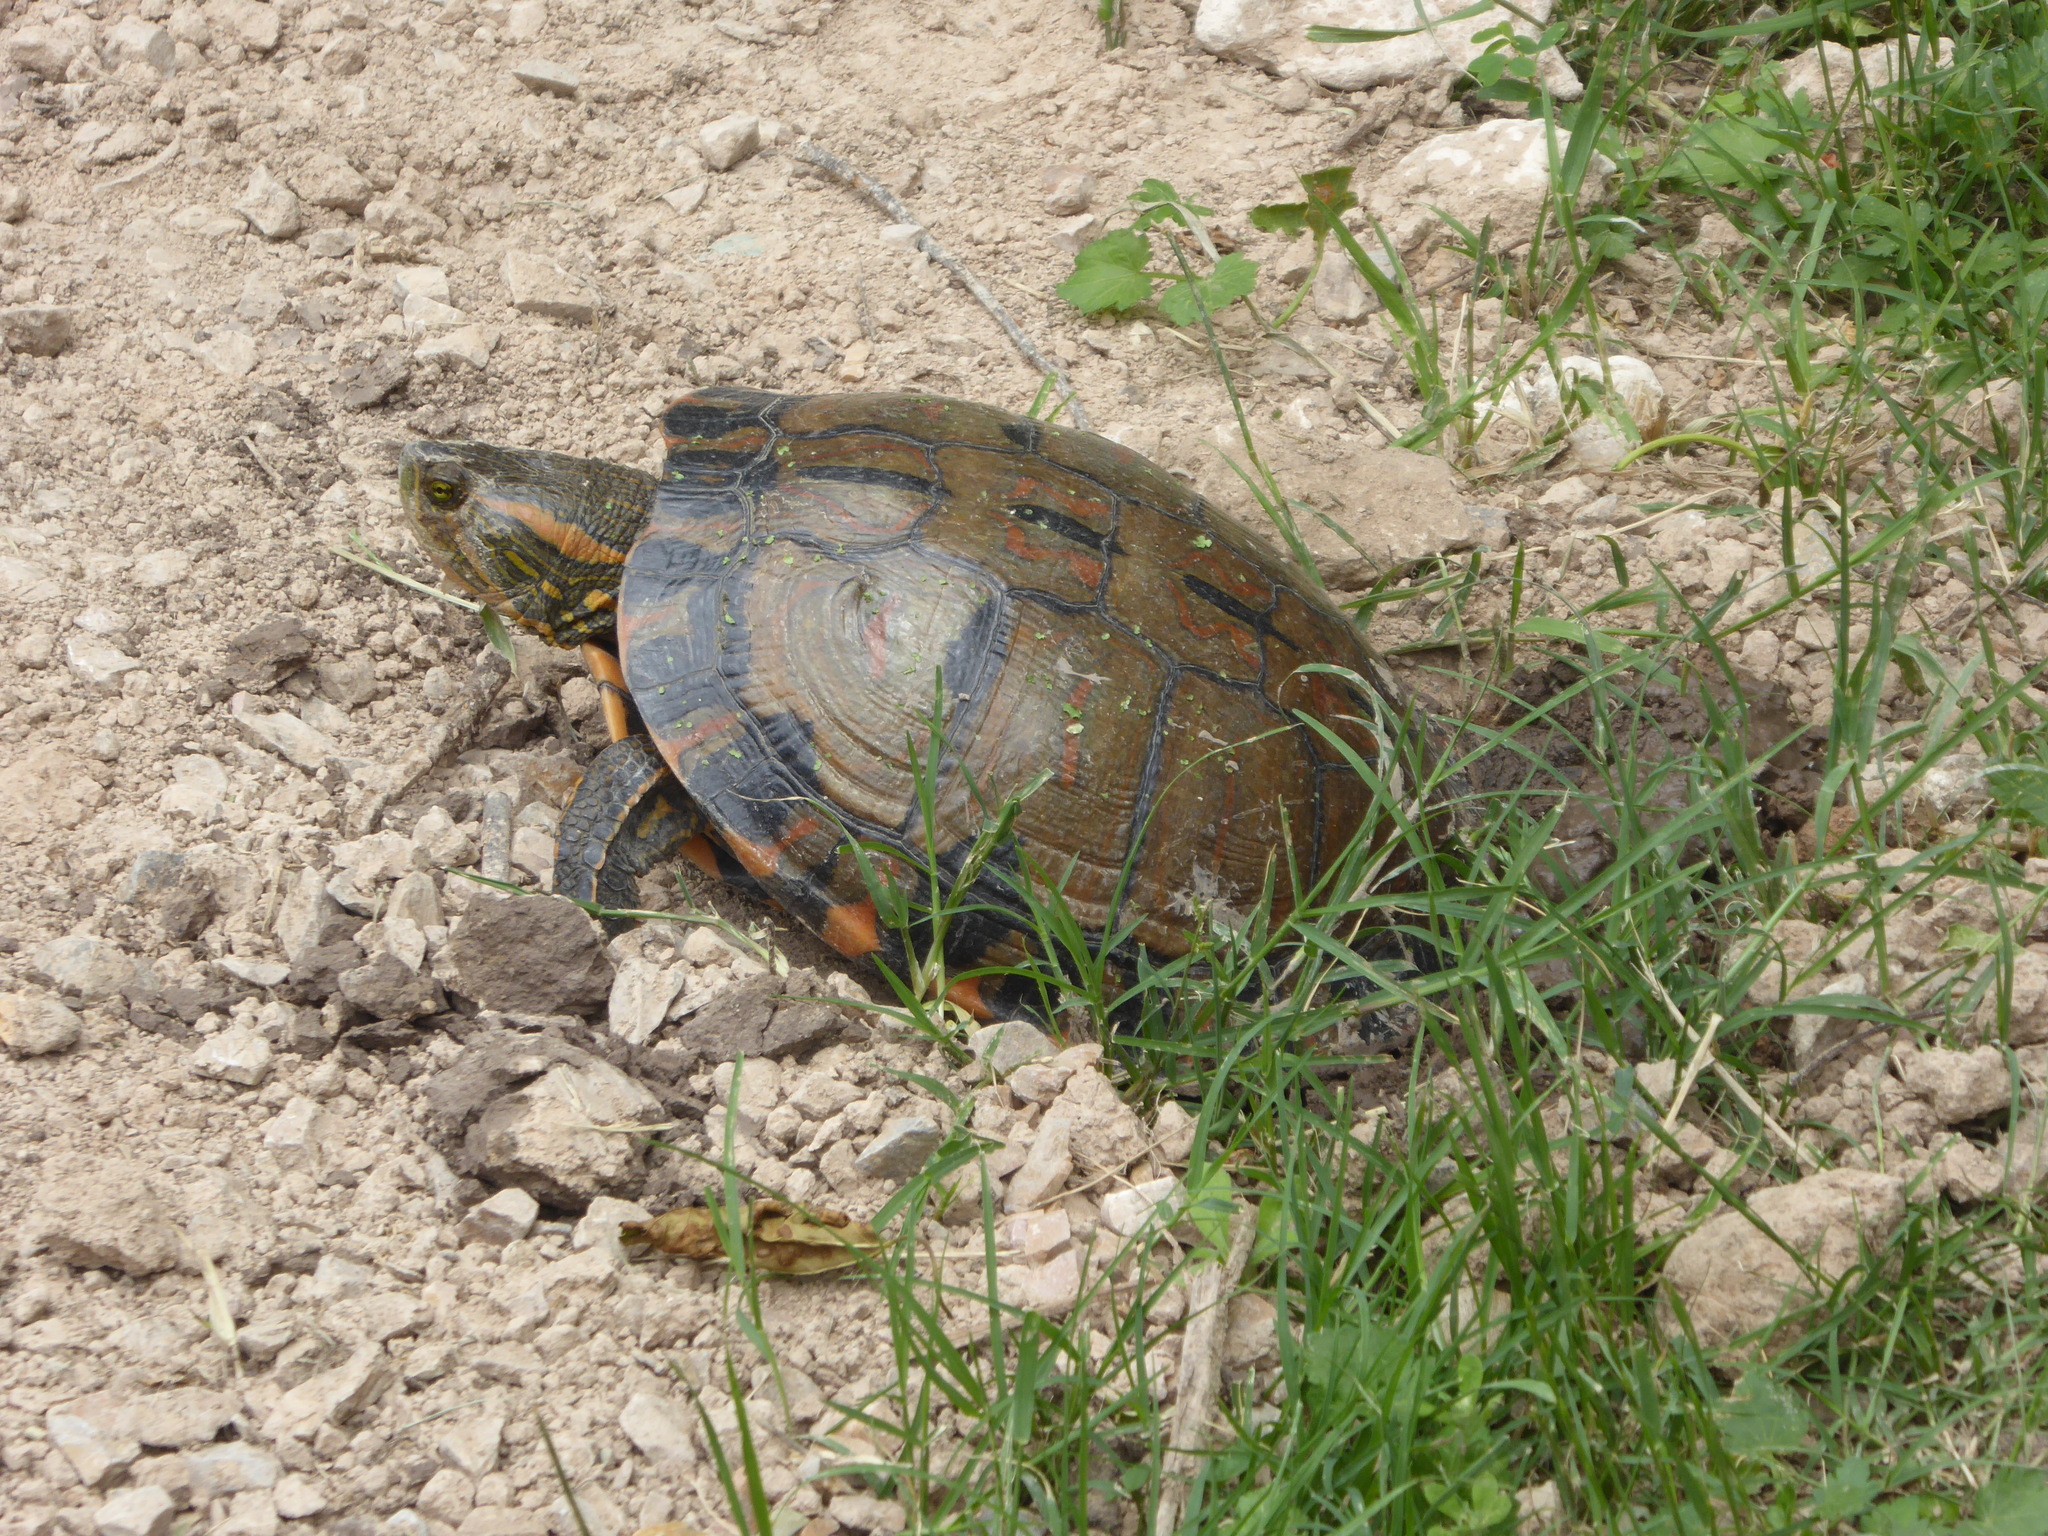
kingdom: Animalia
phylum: Chordata
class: Testudines
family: Emydidae
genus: Trachemys
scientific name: Trachemys dorbigni
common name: Black-bellied slider
